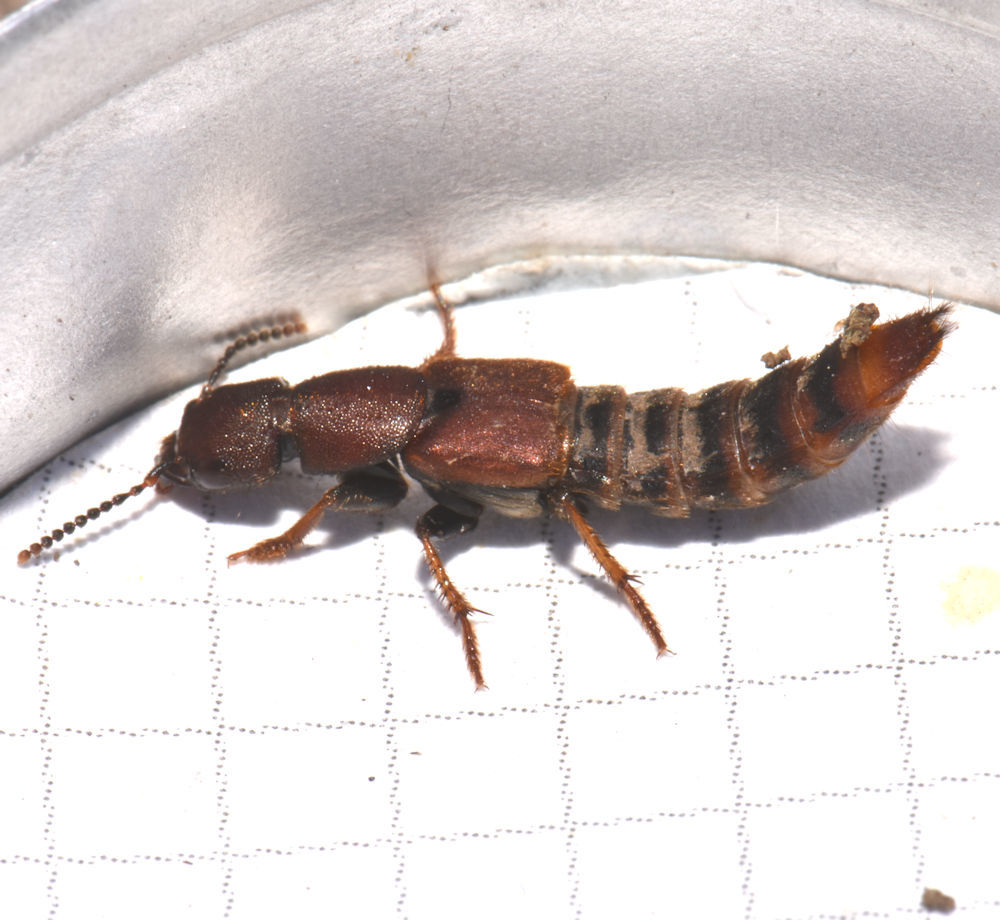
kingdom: Animalia
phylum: Arthropoda
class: Insecta
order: Coleoptera
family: Staphylinidae
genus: Platydracus
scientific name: Platydracus cinnamopterus
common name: Cinnamon rove beetle
